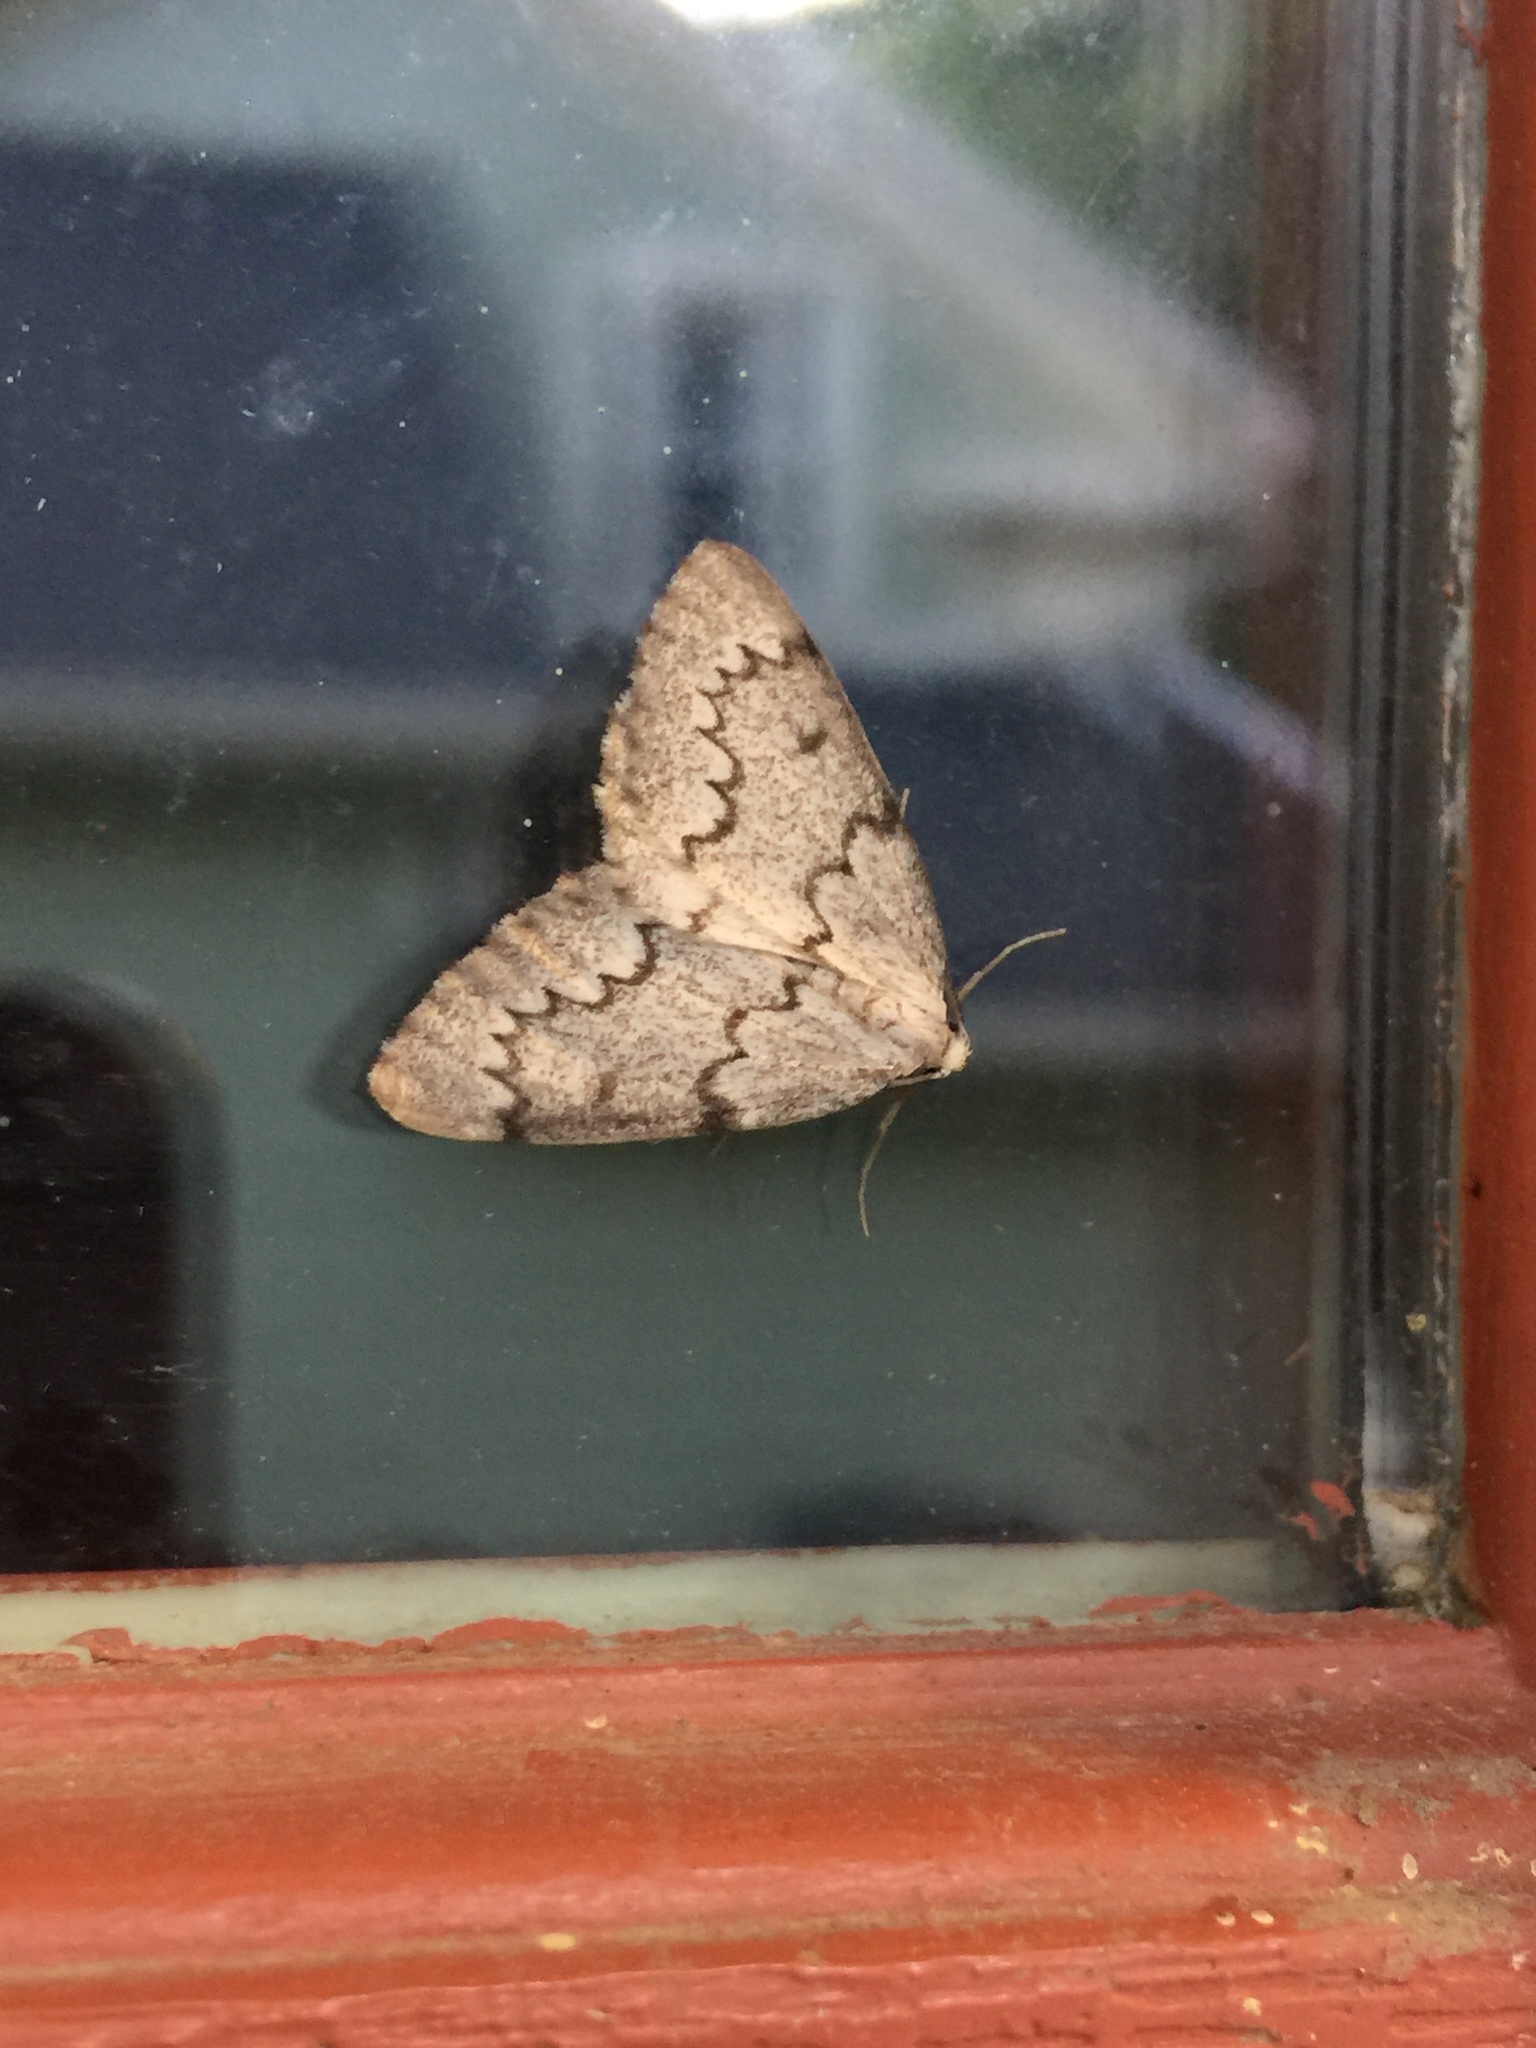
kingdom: Animalia
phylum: Arthropoda
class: Insecta
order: Lepidoptera
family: Geometridae
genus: Nepytia
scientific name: Nepytia canosaria
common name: False hemlock looper
